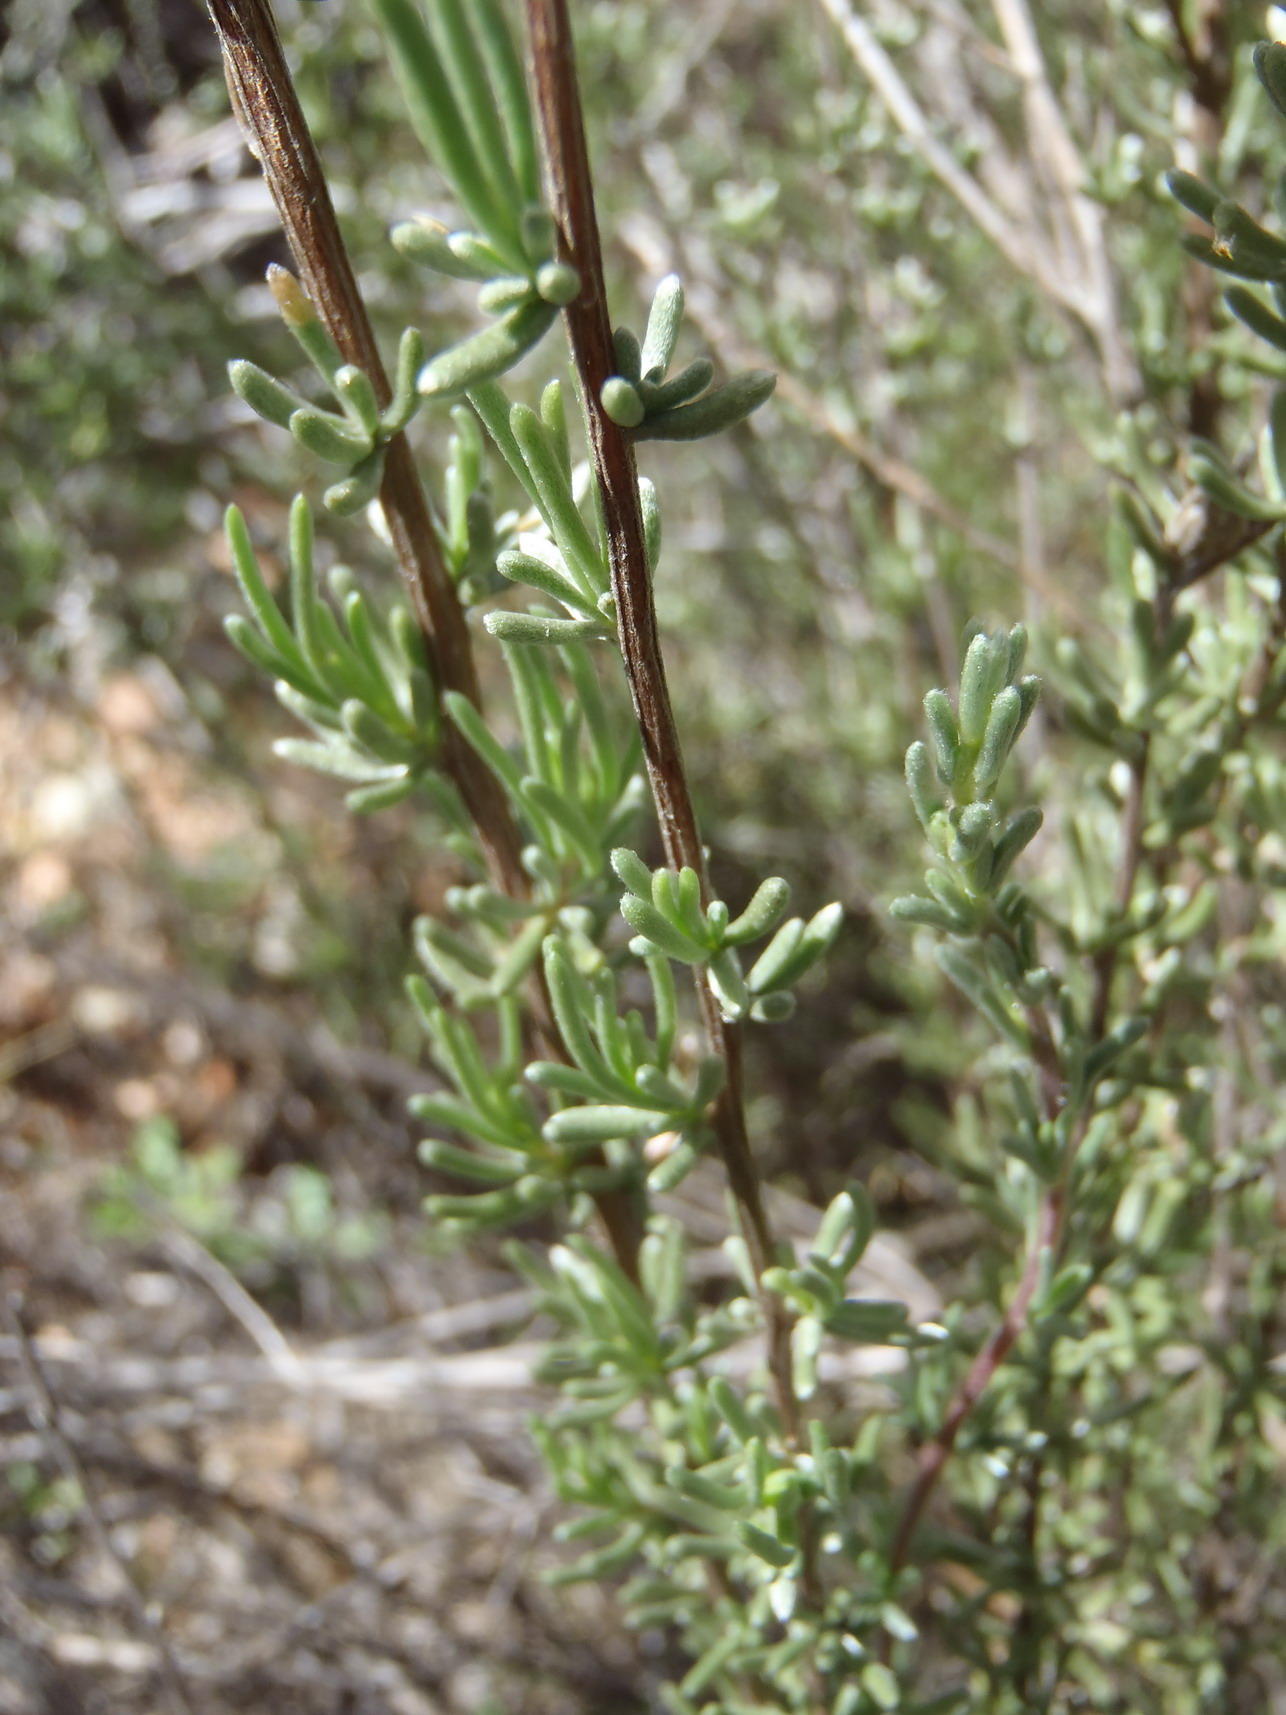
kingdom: Plantae
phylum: Tracheophyta
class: Magnoliopsida
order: Asterales
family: Asteraceae
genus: Eriocephalus
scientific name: Eriocephalus africanus
